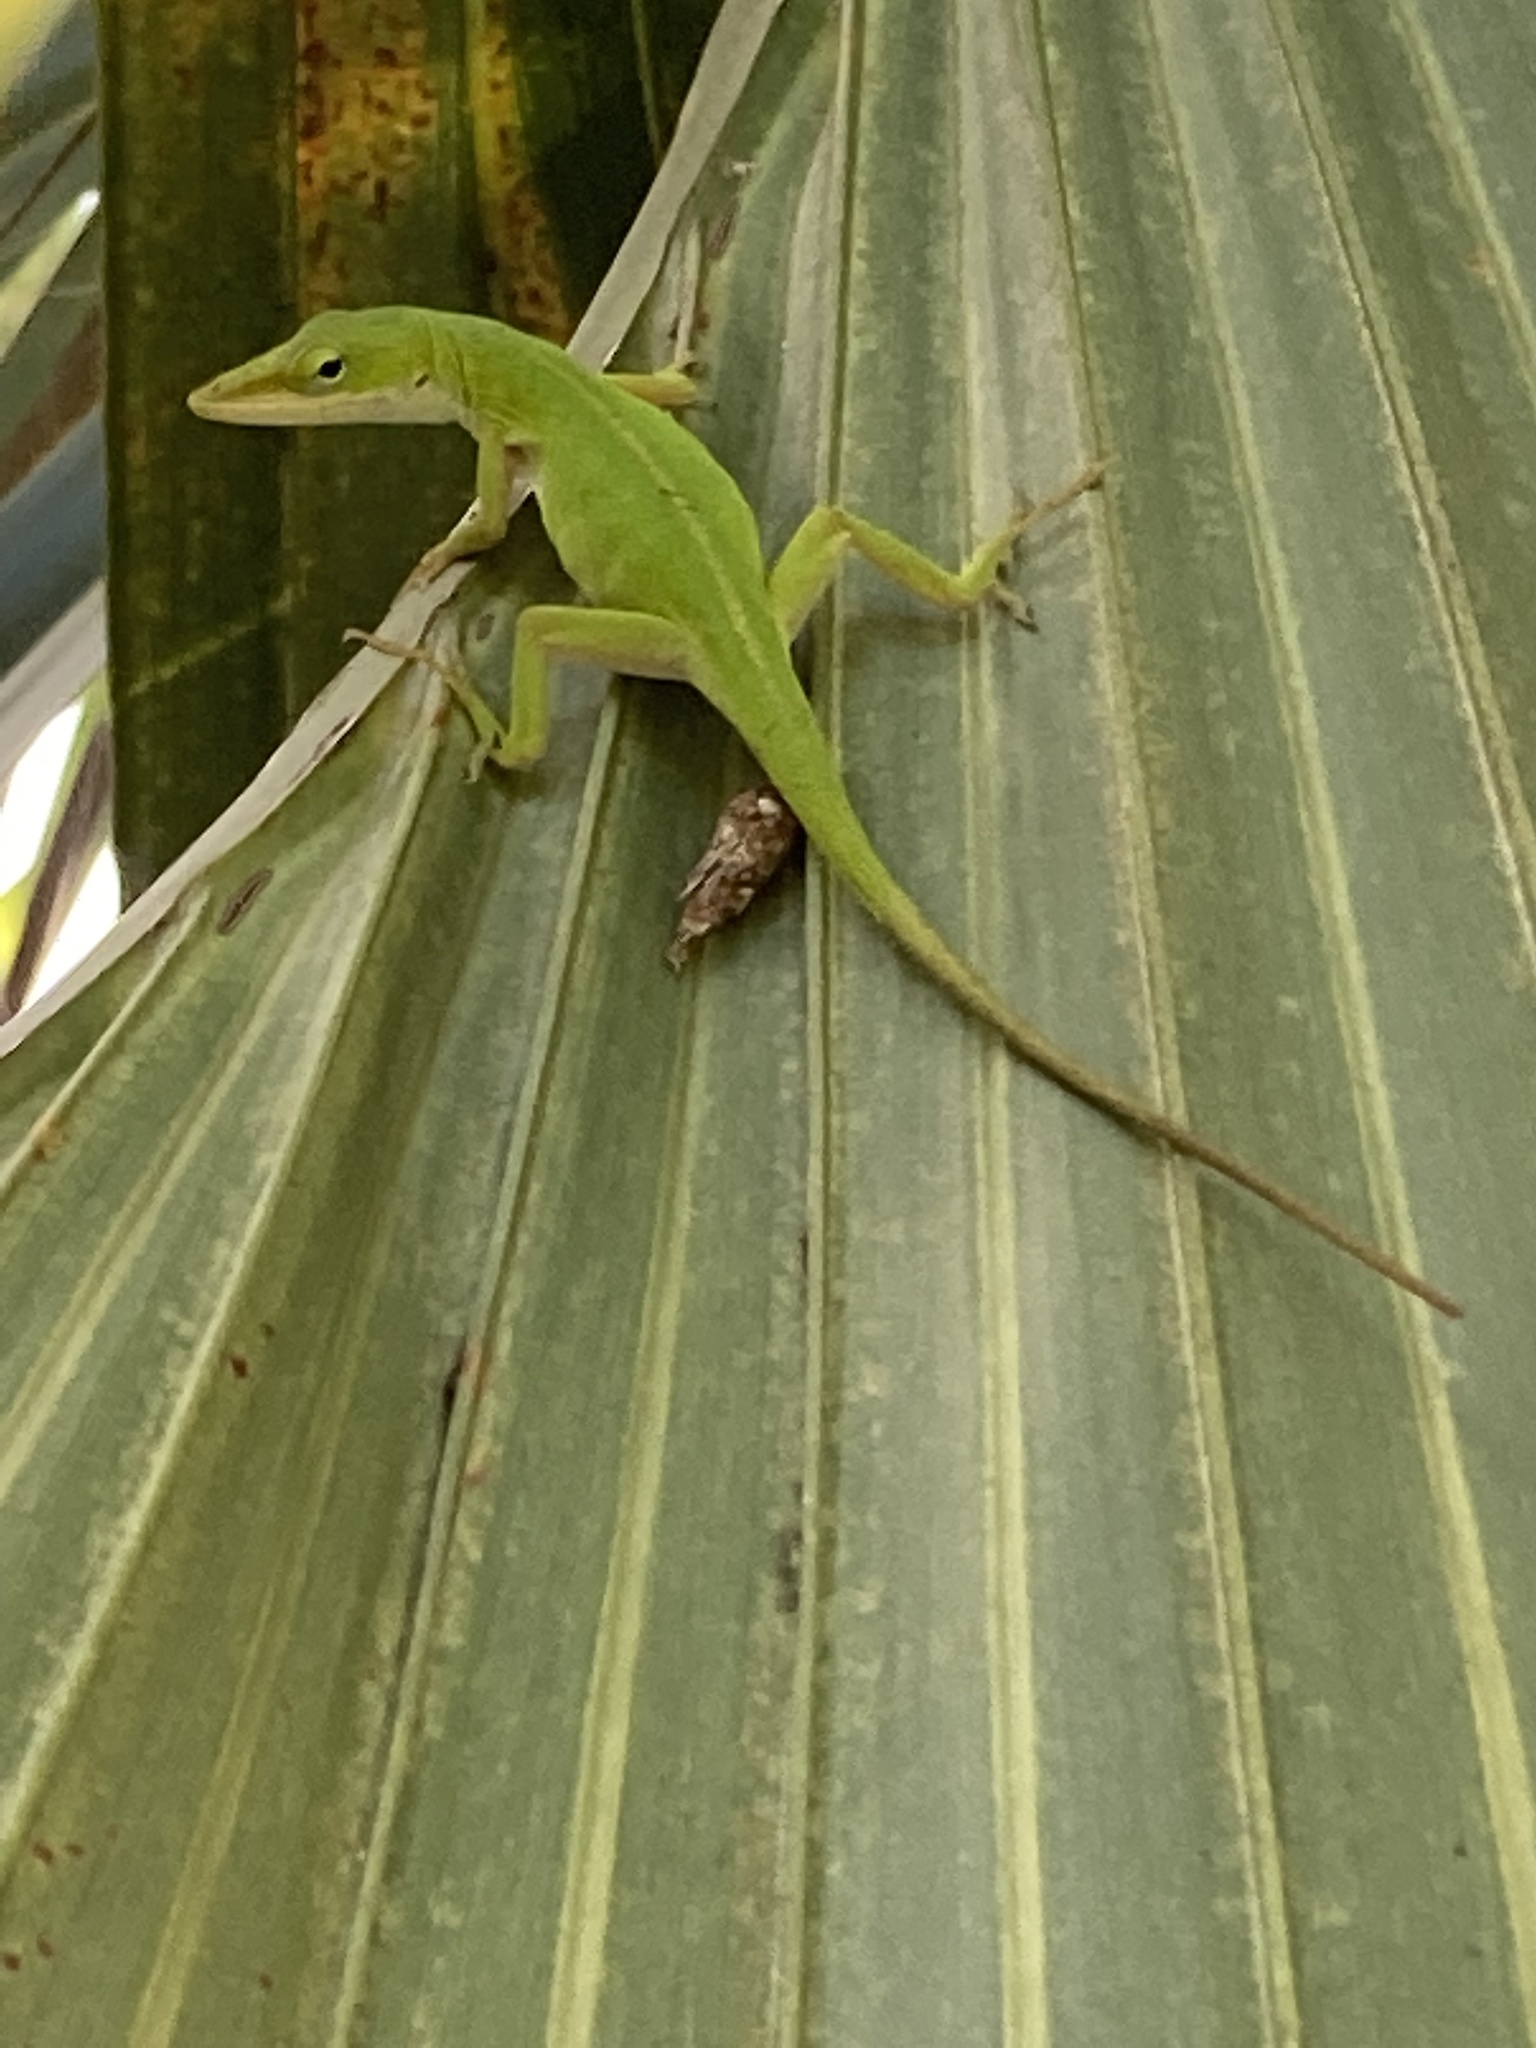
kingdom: Animalia
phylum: Chordata
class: Squamata
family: Dactyloidae
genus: Anolis
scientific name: Anolis carolinensis
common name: Green anole
